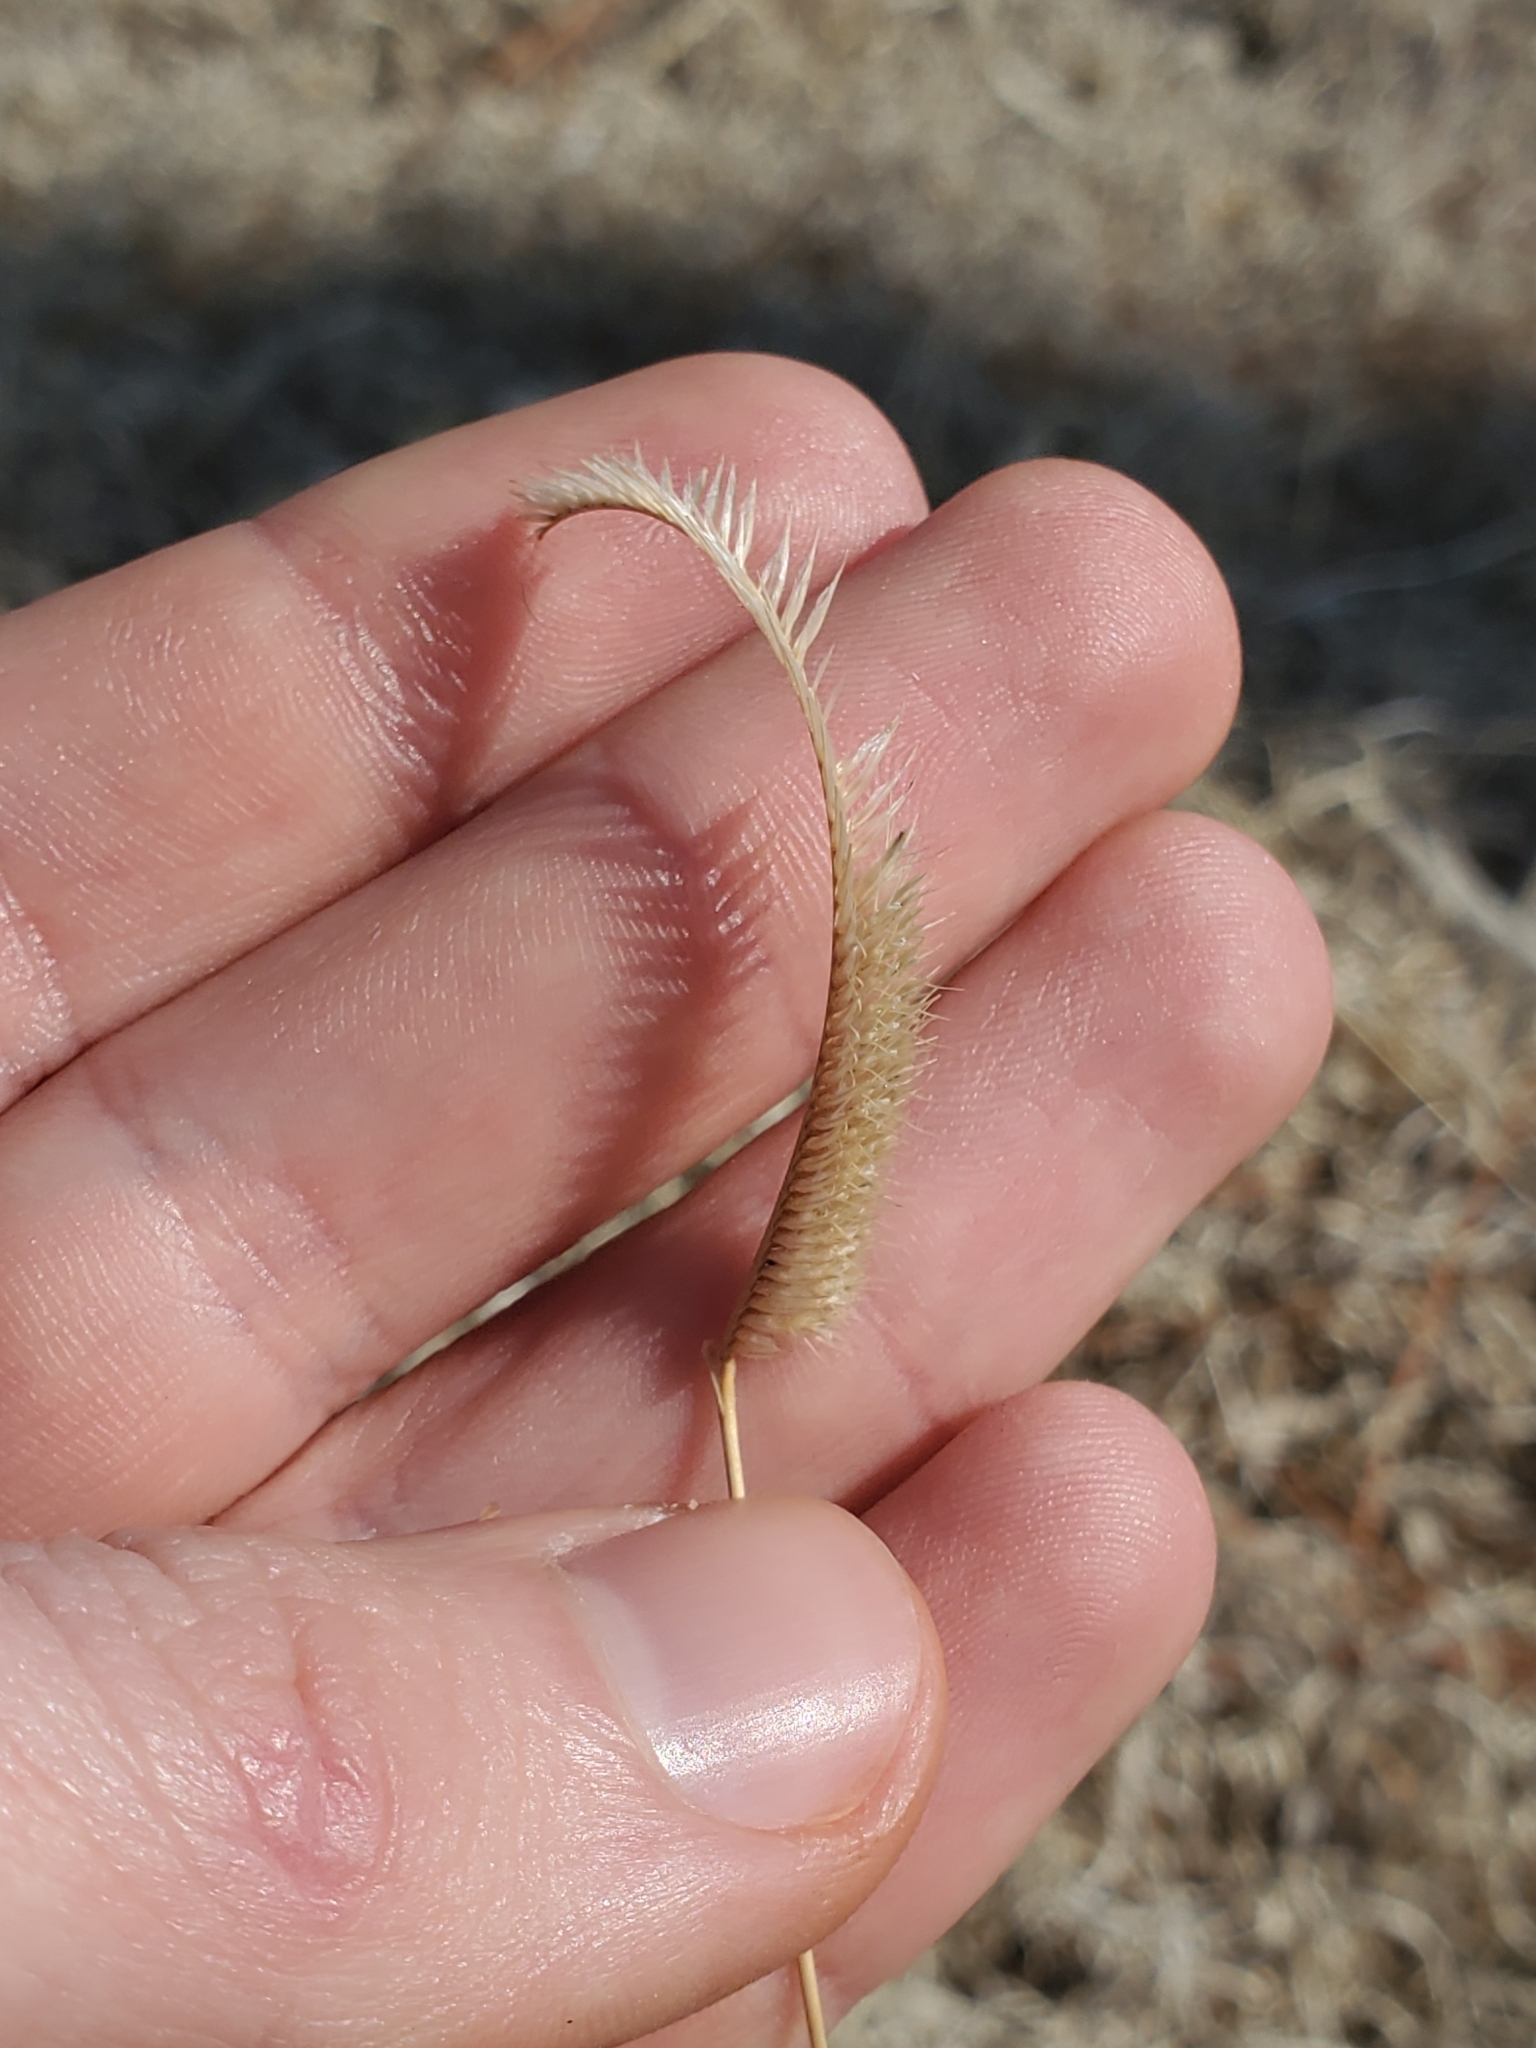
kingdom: Plantae
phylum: Tracheophyta
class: Liliopsida
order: Poales
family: Poaceae
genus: Bouteloua
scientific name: Bouteloua gracilis
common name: Blue grama
